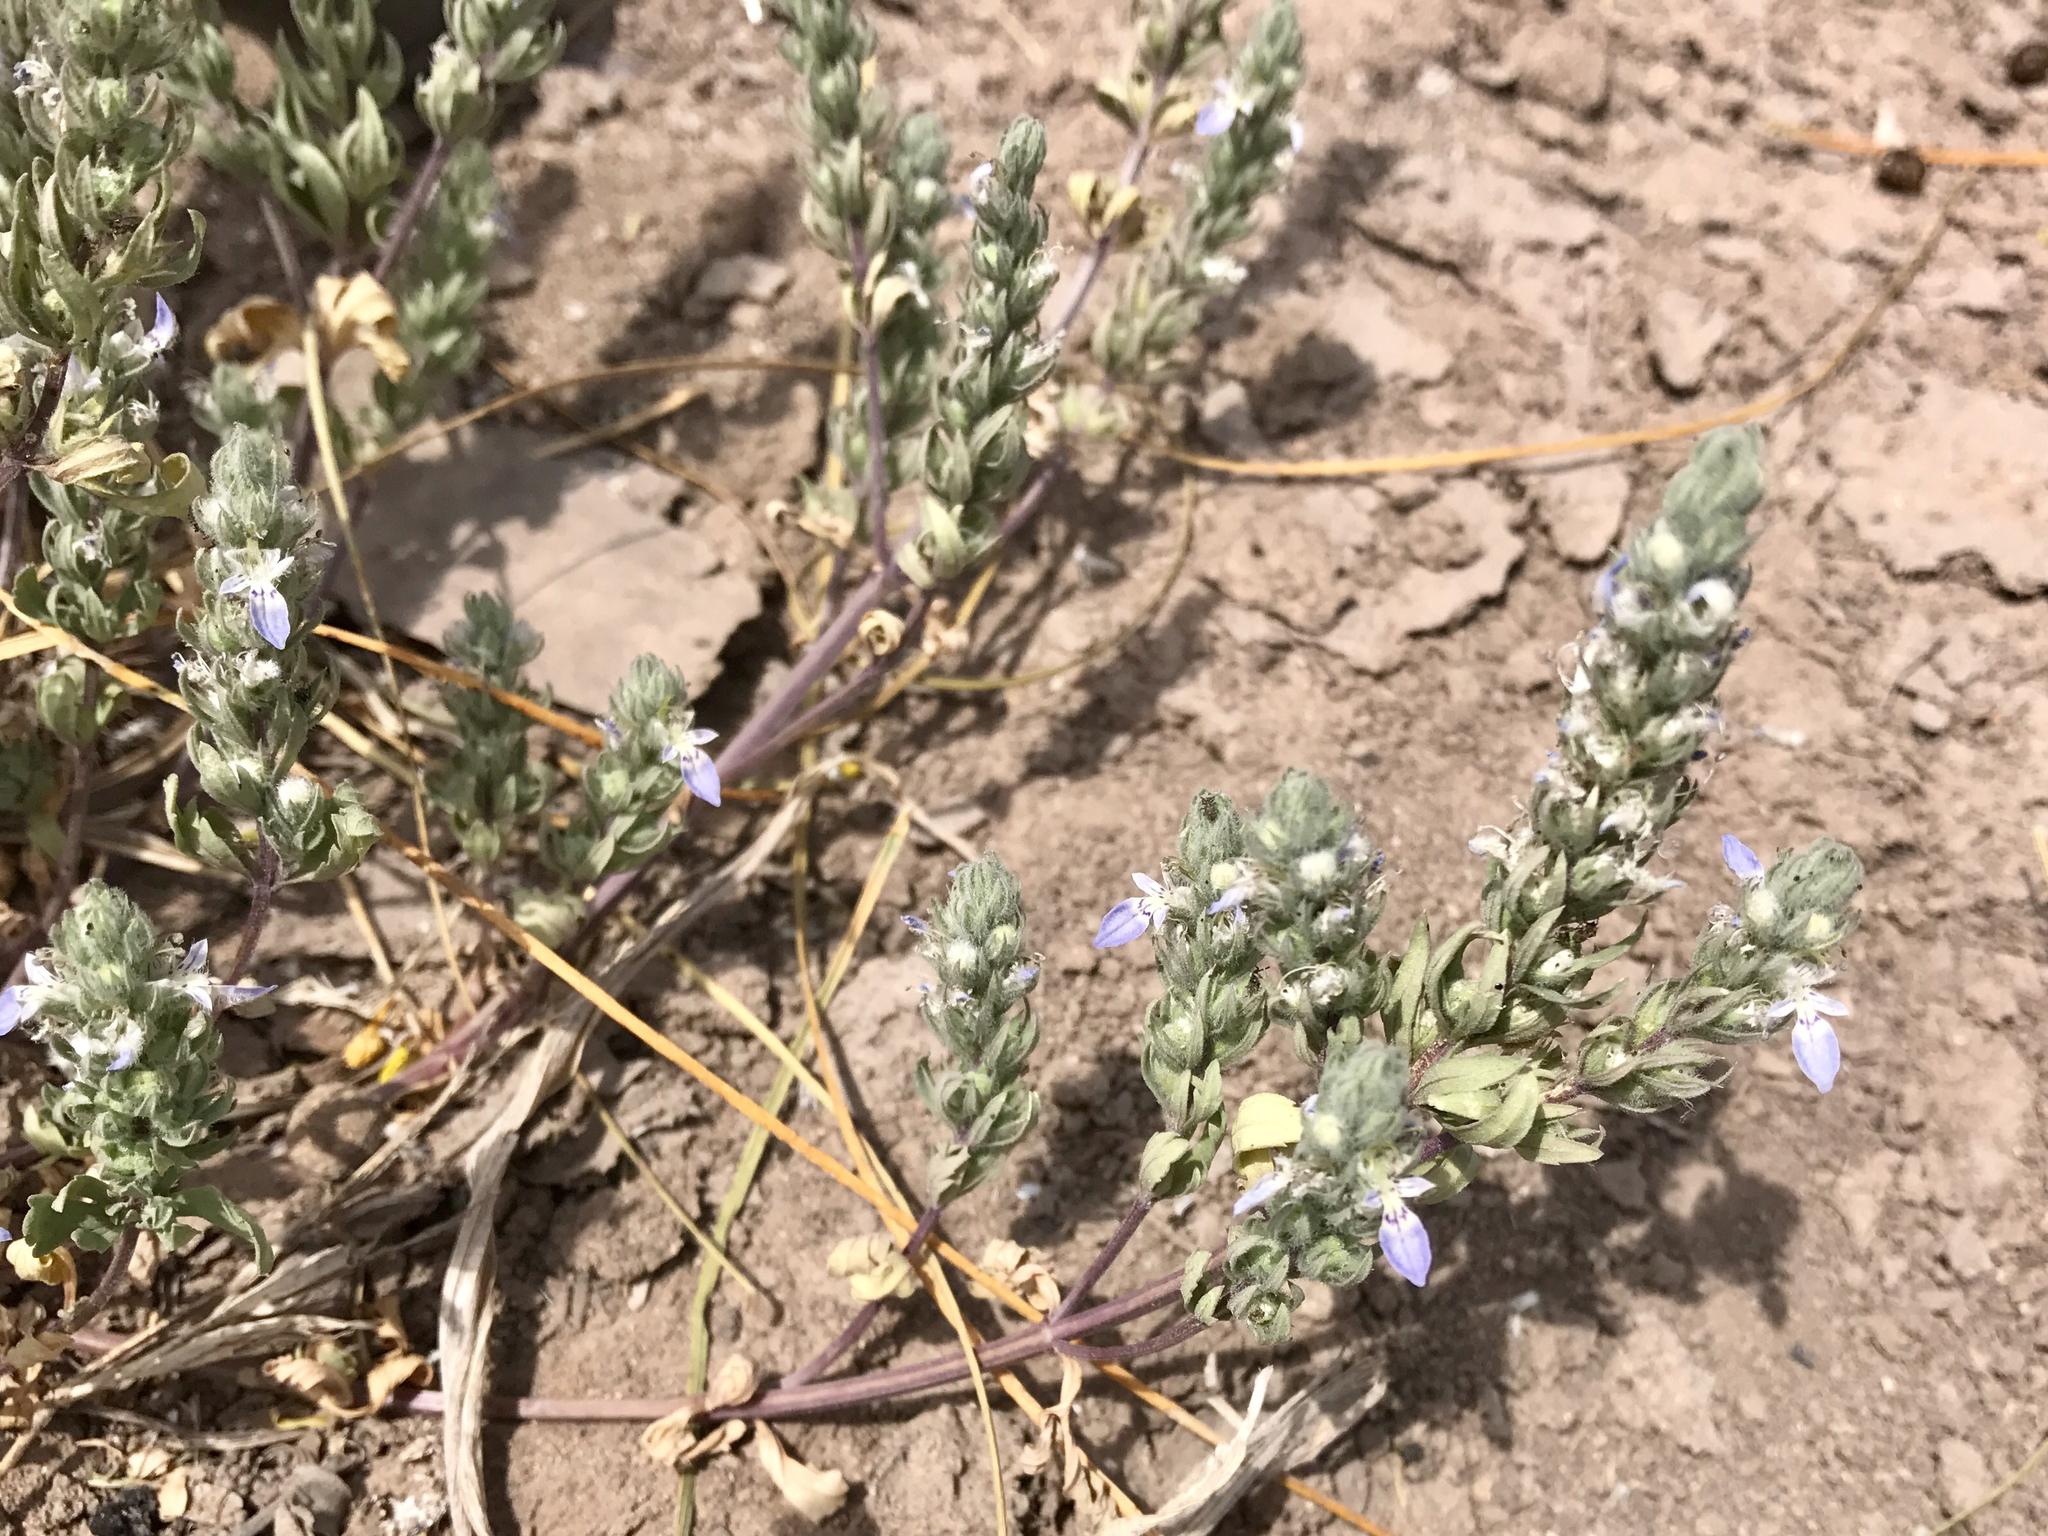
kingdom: Plantae
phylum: Tracheophyta
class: Magnoliopsida
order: Lamiales
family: Lamiaceae
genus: Teucrium
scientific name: Teucrium cubense
